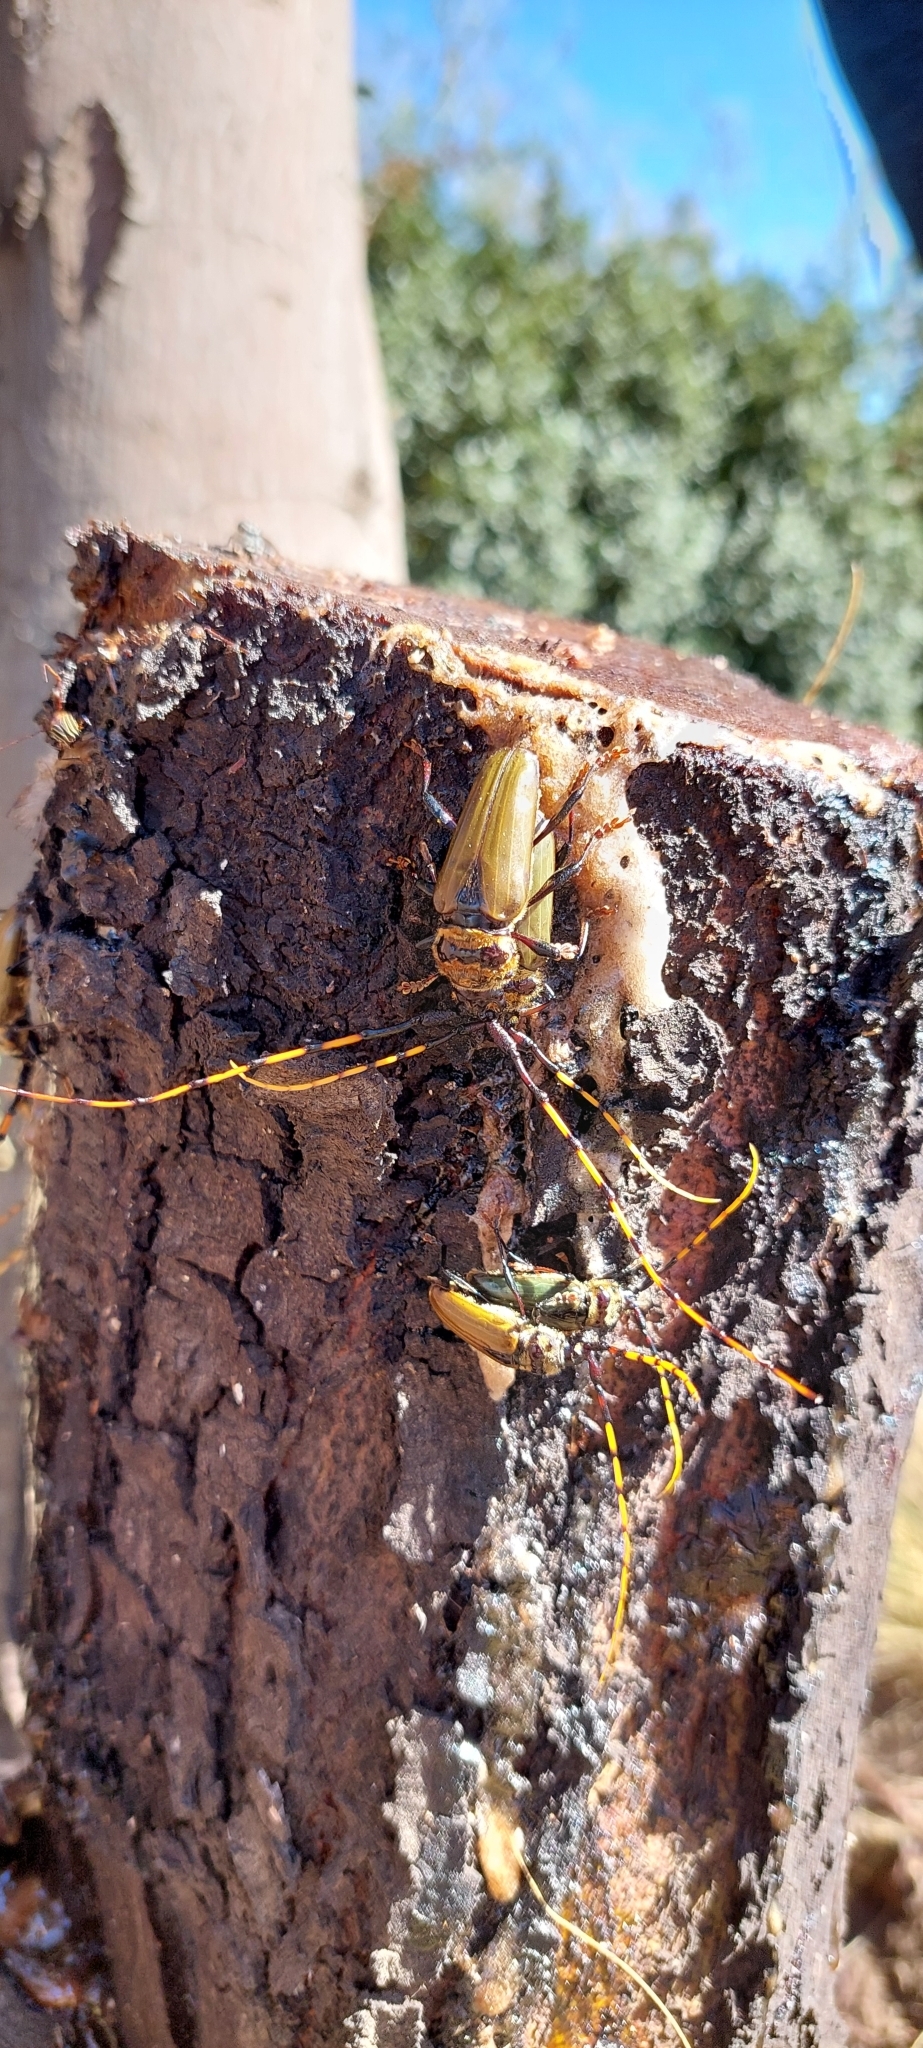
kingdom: Animalia
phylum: Arthropoda
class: Insecta
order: Coleoptera
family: Cerambycidae
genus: Retrachydes
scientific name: Retrachydes thoracicus
